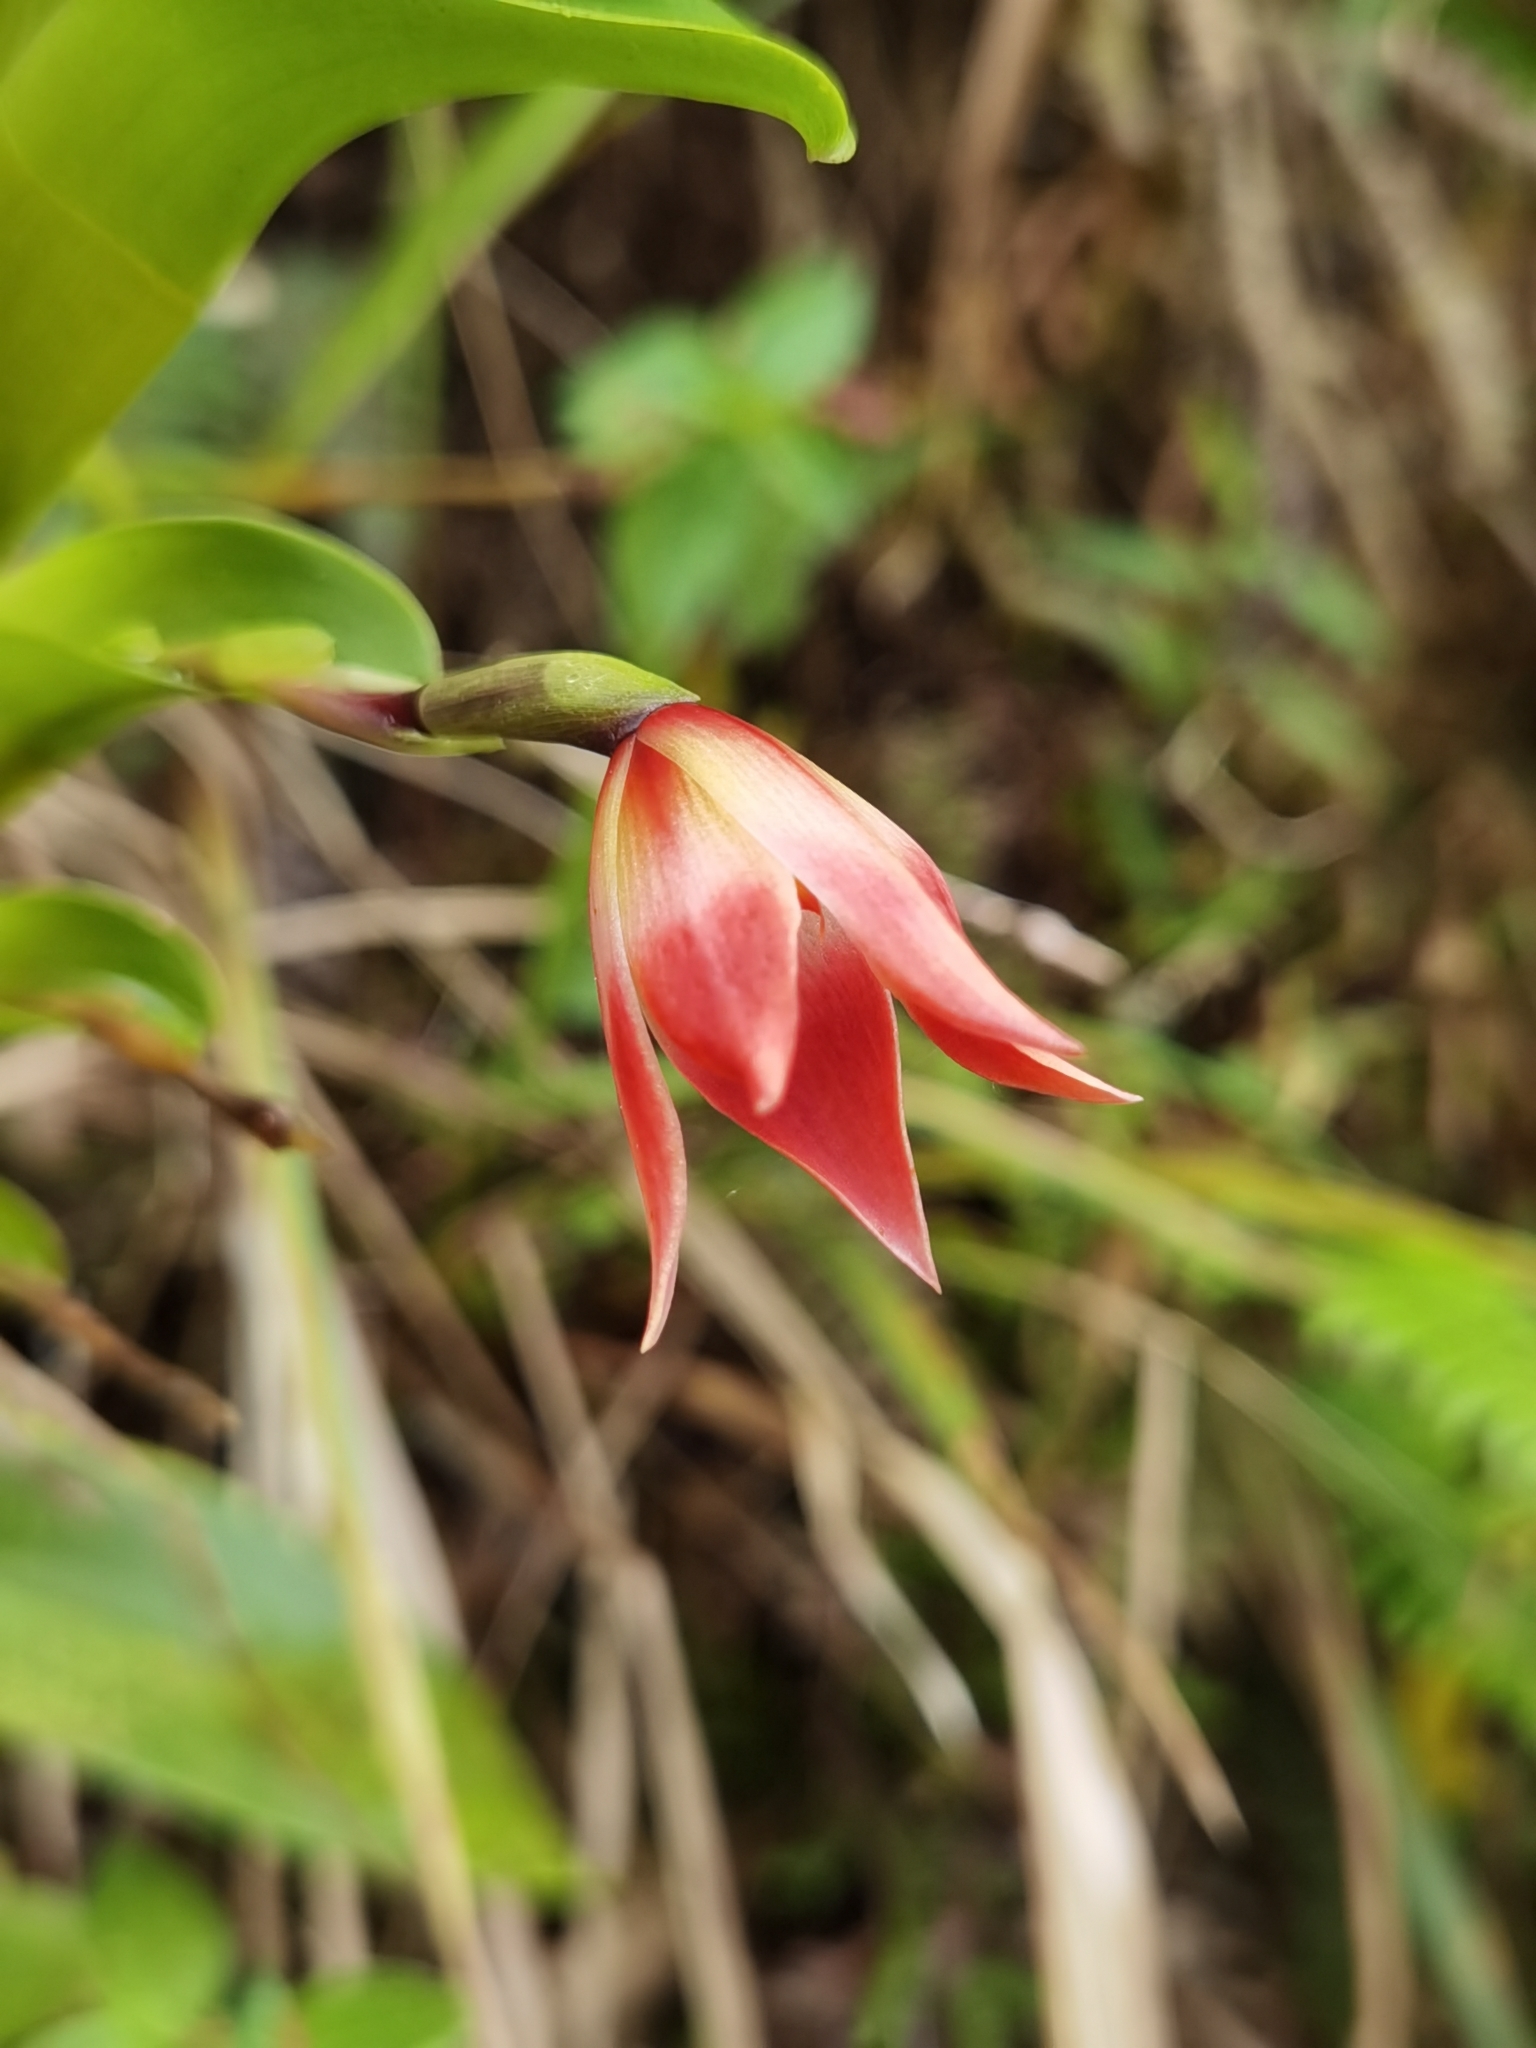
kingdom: Plantae
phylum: Tracheophyta
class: Liliopsida
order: Asparagales
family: Orchidaceae
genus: Maxillaria
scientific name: Maxillaria bradeorum
